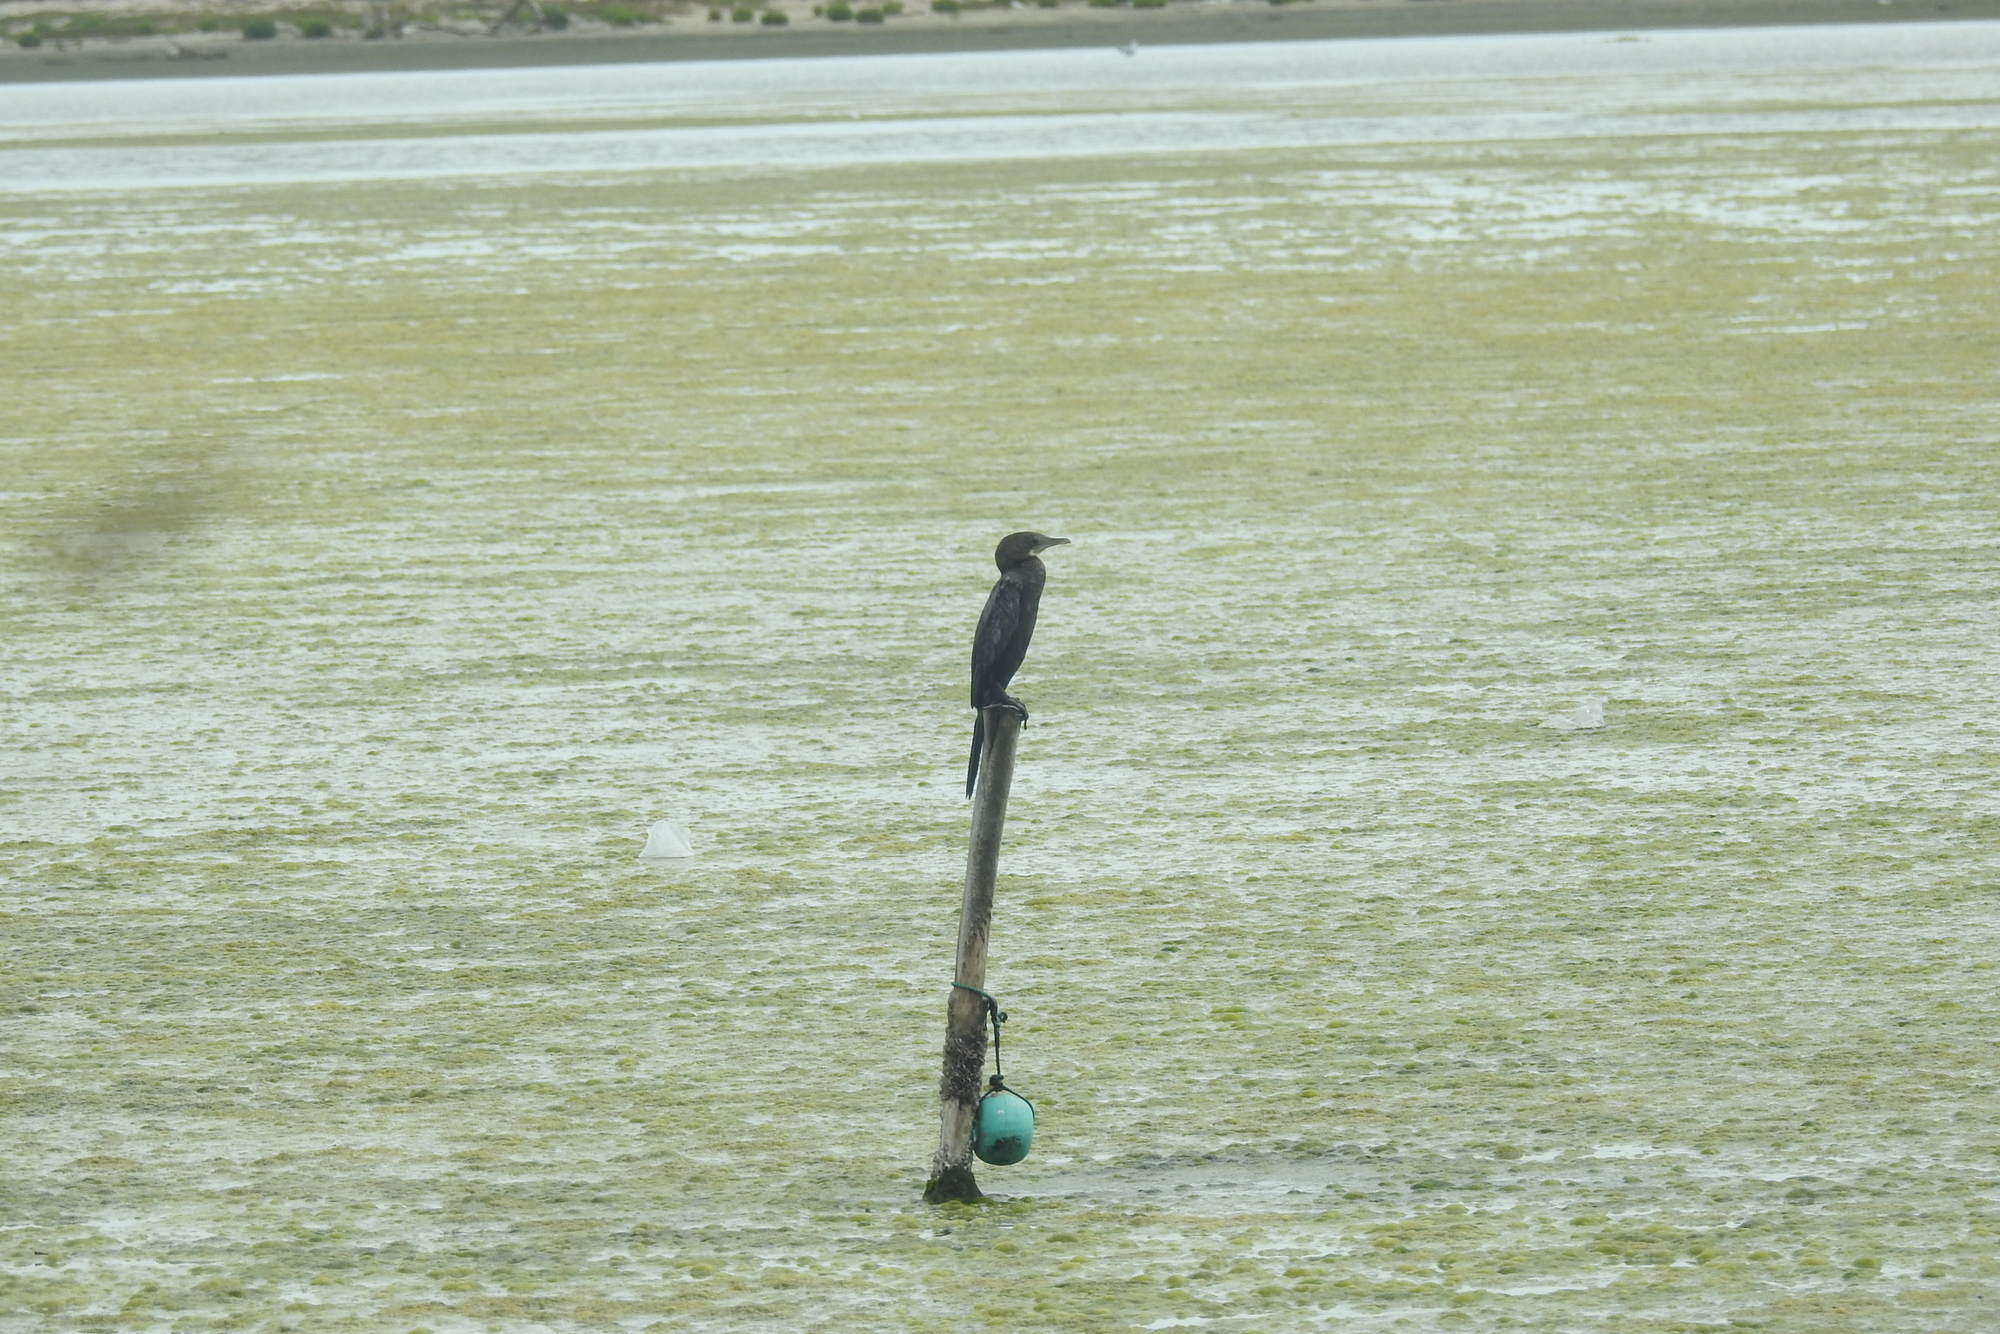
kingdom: Animalia
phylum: Chordata
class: Aves
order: Suliformes
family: Phalacrocoracidae
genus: Microcarbo
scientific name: Microcarbo niger
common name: Little cormorant
